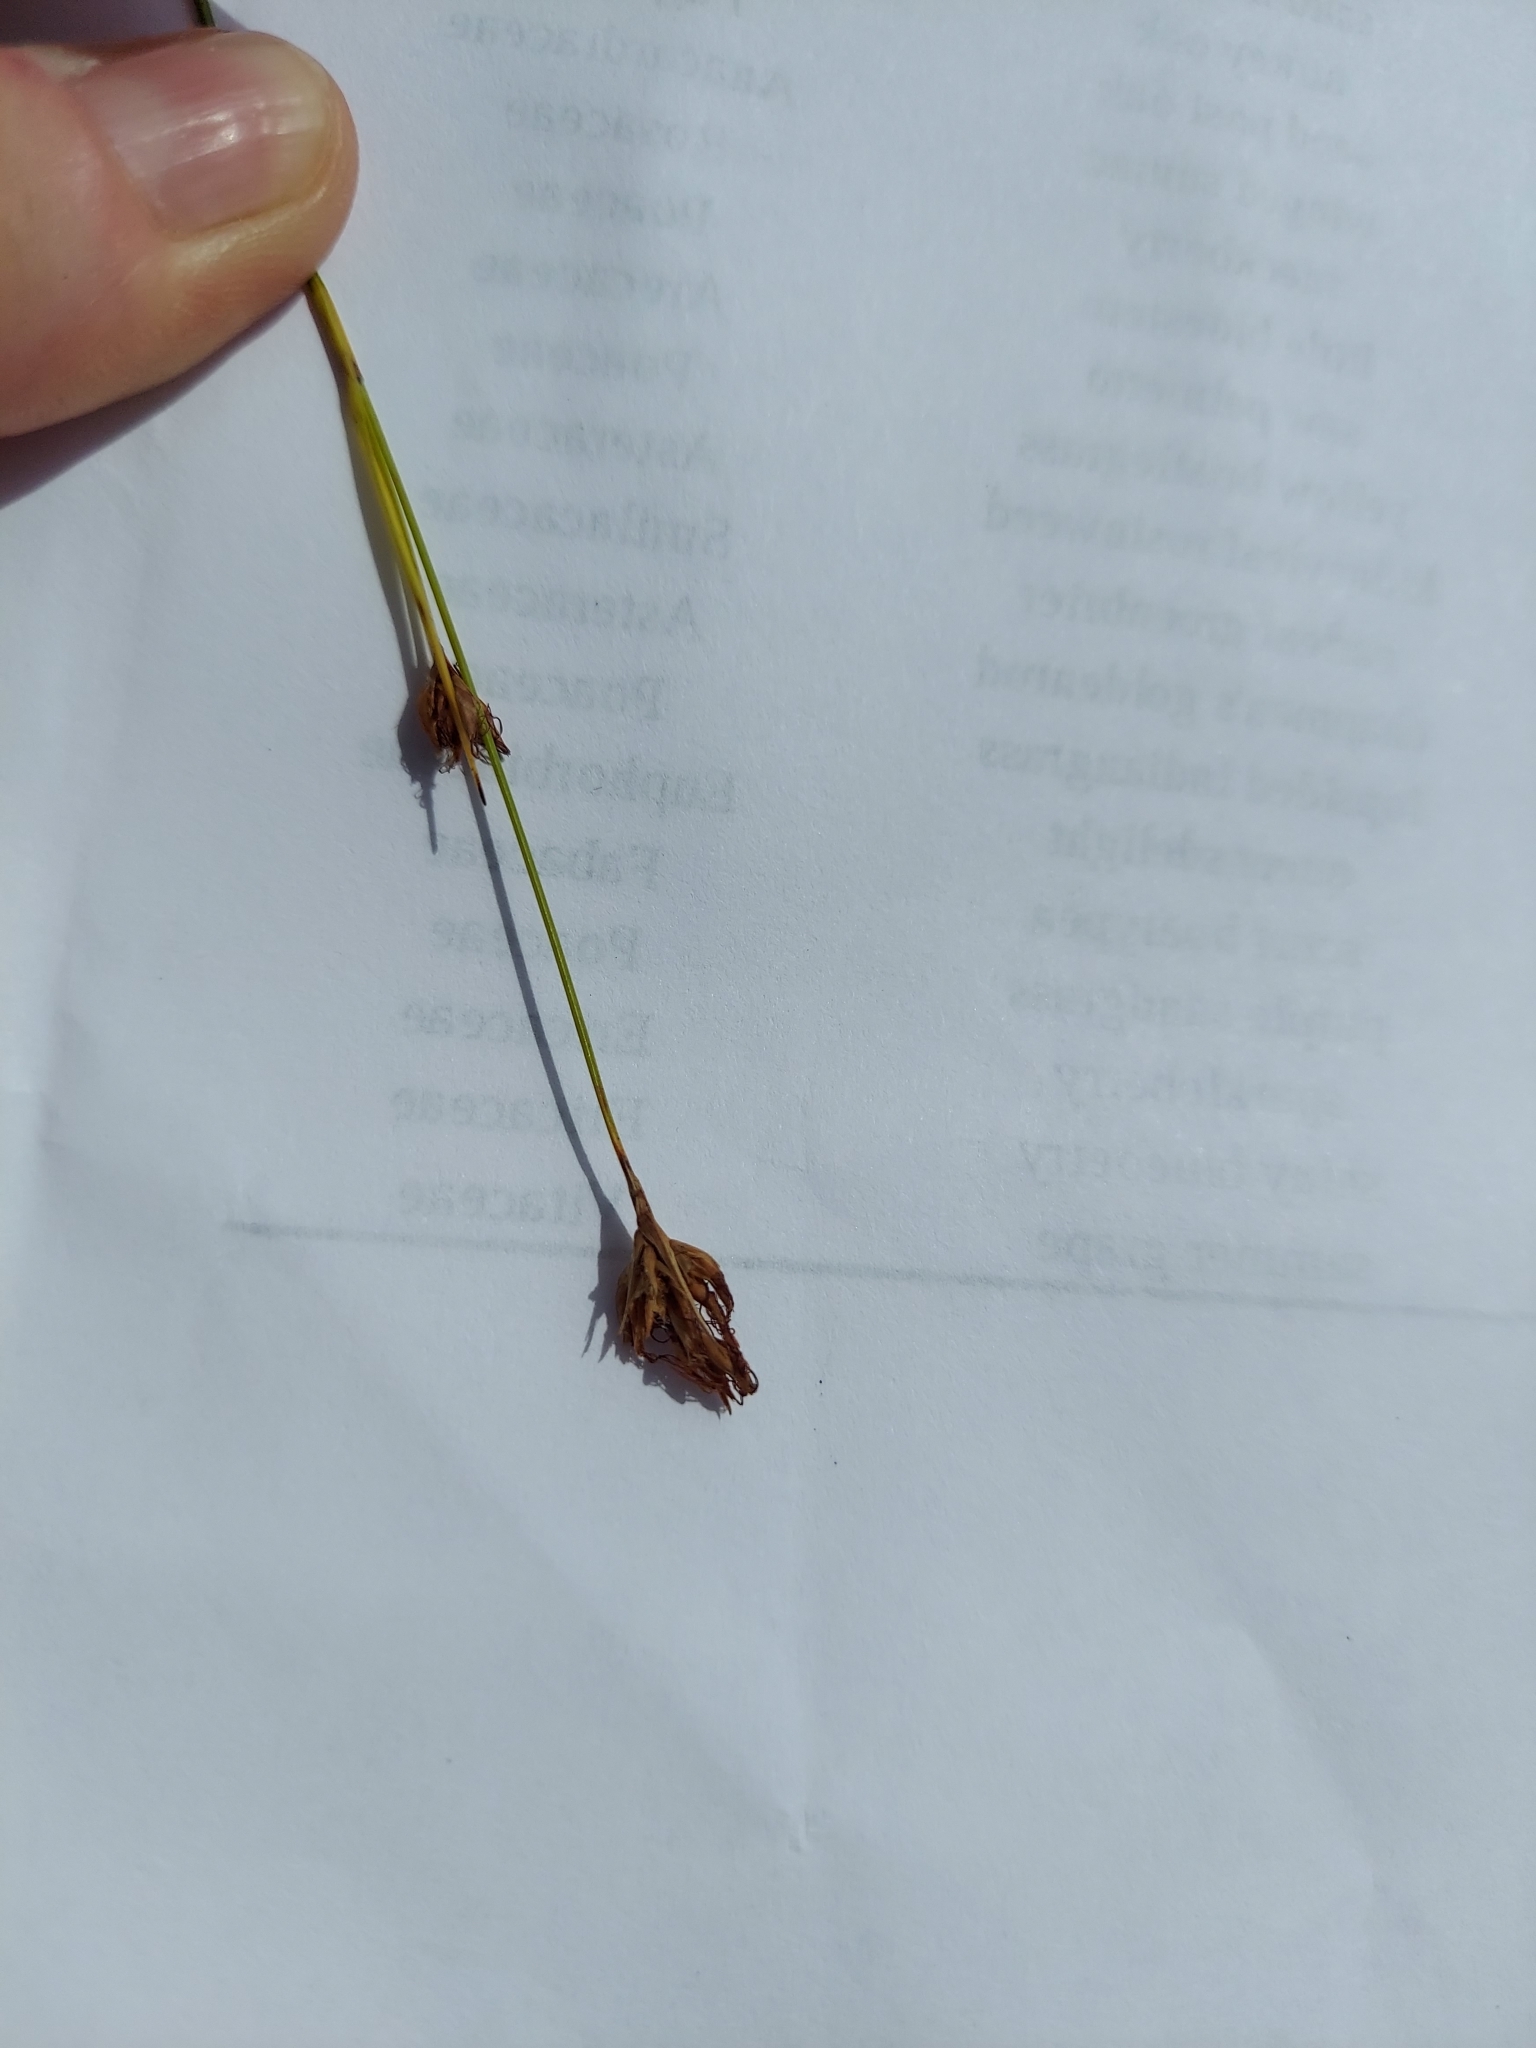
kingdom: Plantae
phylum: Tracheophyta
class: Liliopsida
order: Poales
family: Cyperaceae
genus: Rhynchospora
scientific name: Rhynchospora grayi
